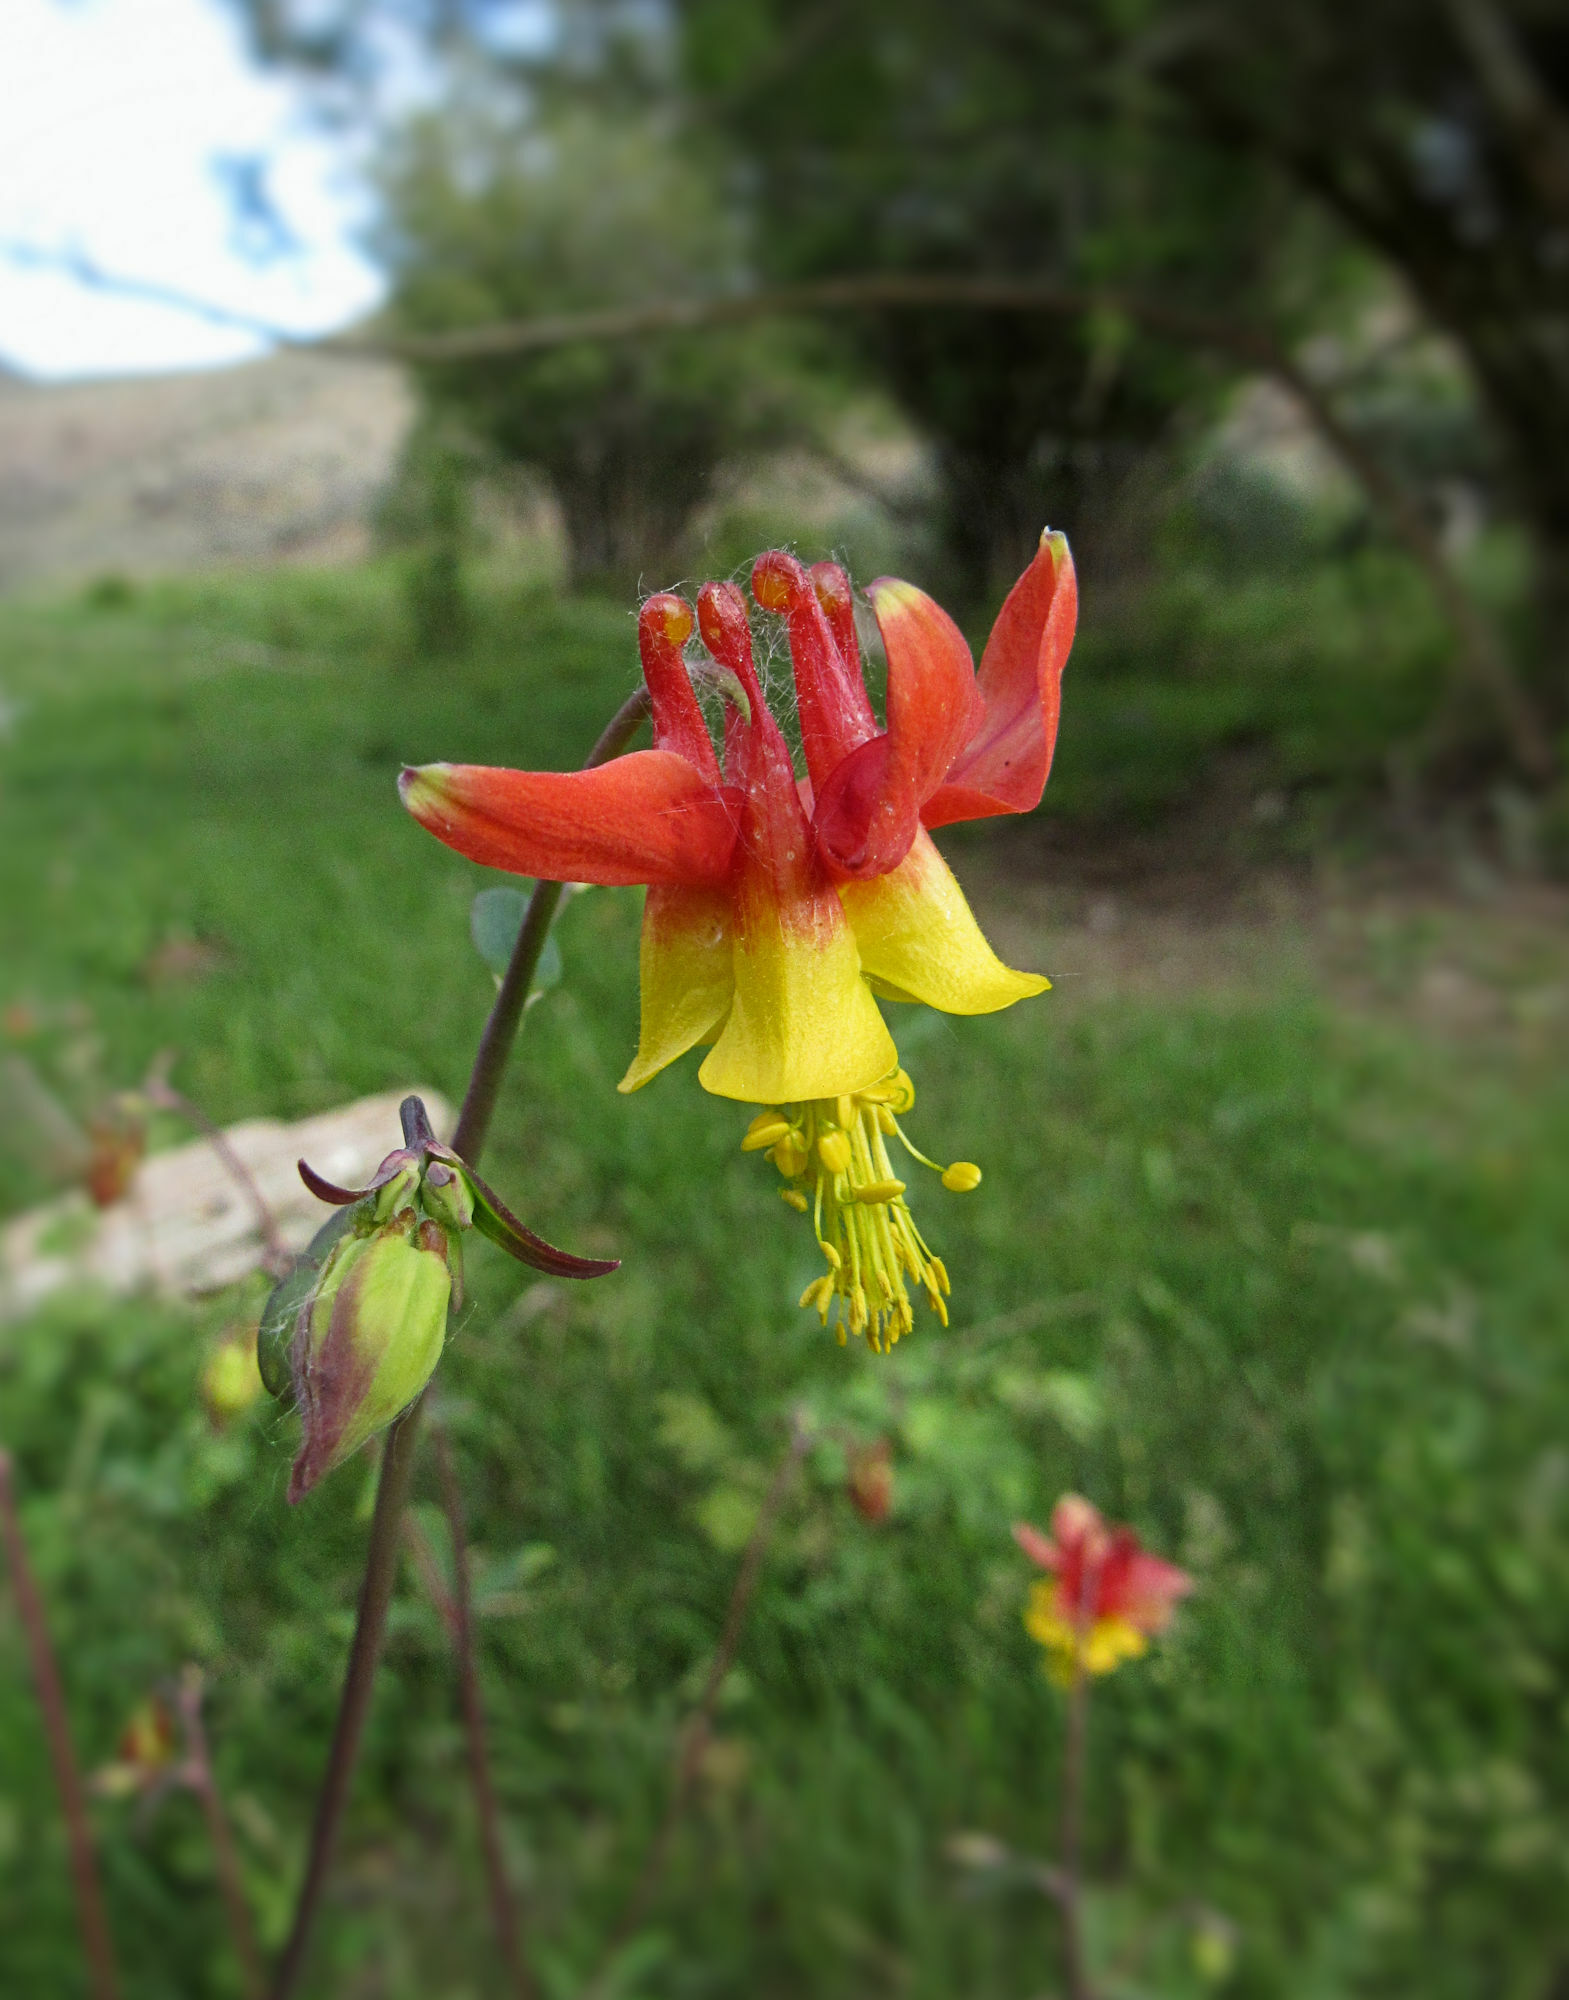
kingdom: Plantae
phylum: Tracheophyta
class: Magnoliopsida
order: Ranunculales
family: Ranunculaceae
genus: Aquilegia
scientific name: Aquilegia formosa
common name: Sitka columbine
